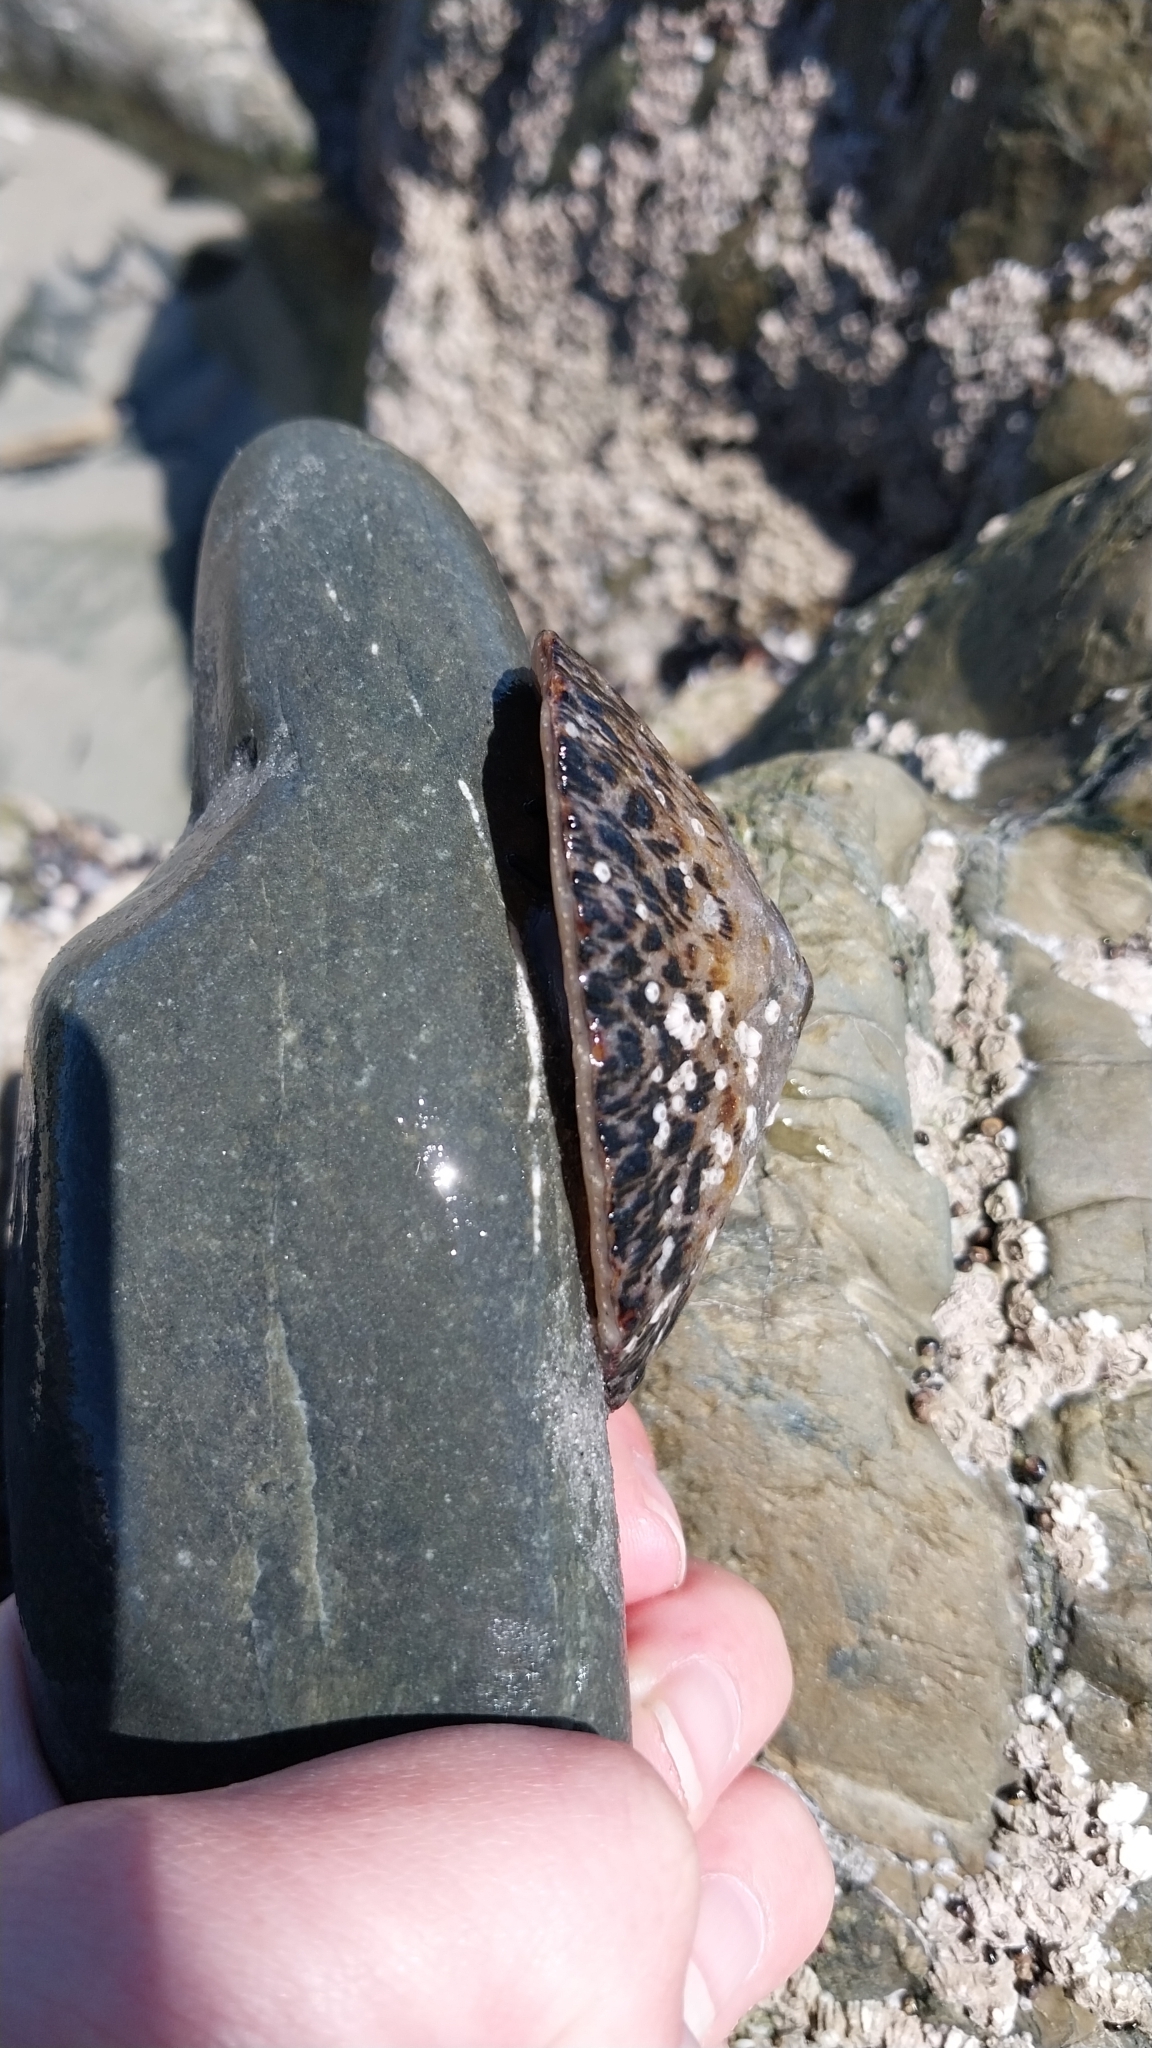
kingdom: Animalia
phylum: Mollusca
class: Gastropoda
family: Nacellidae
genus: Cellana
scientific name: Cellana radians
